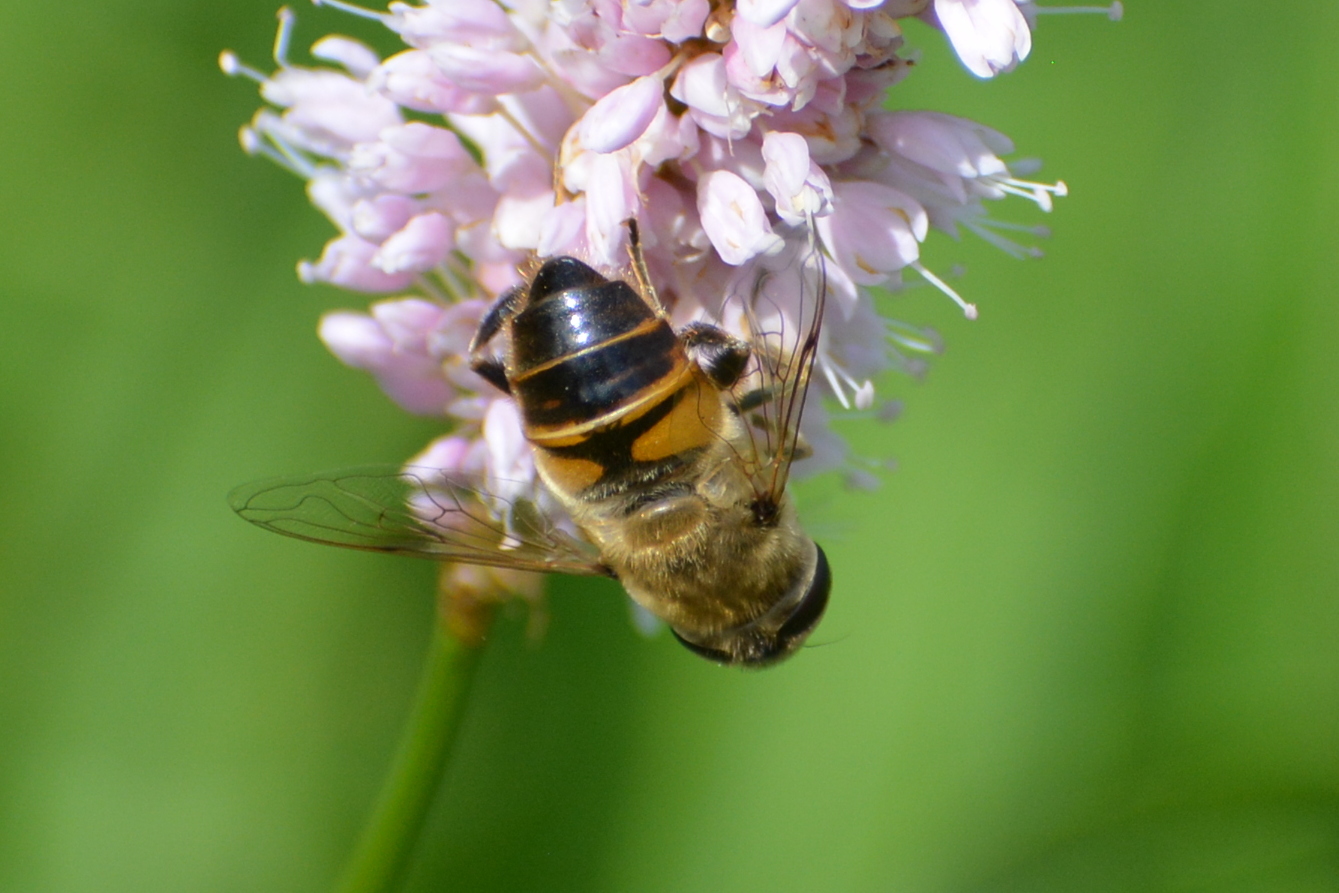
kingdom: Animalia
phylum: Arthropoda
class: Insecta
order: Diptera
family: Syrphidae
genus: Eristalis
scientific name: Eristalis tenax
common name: Drone fly
